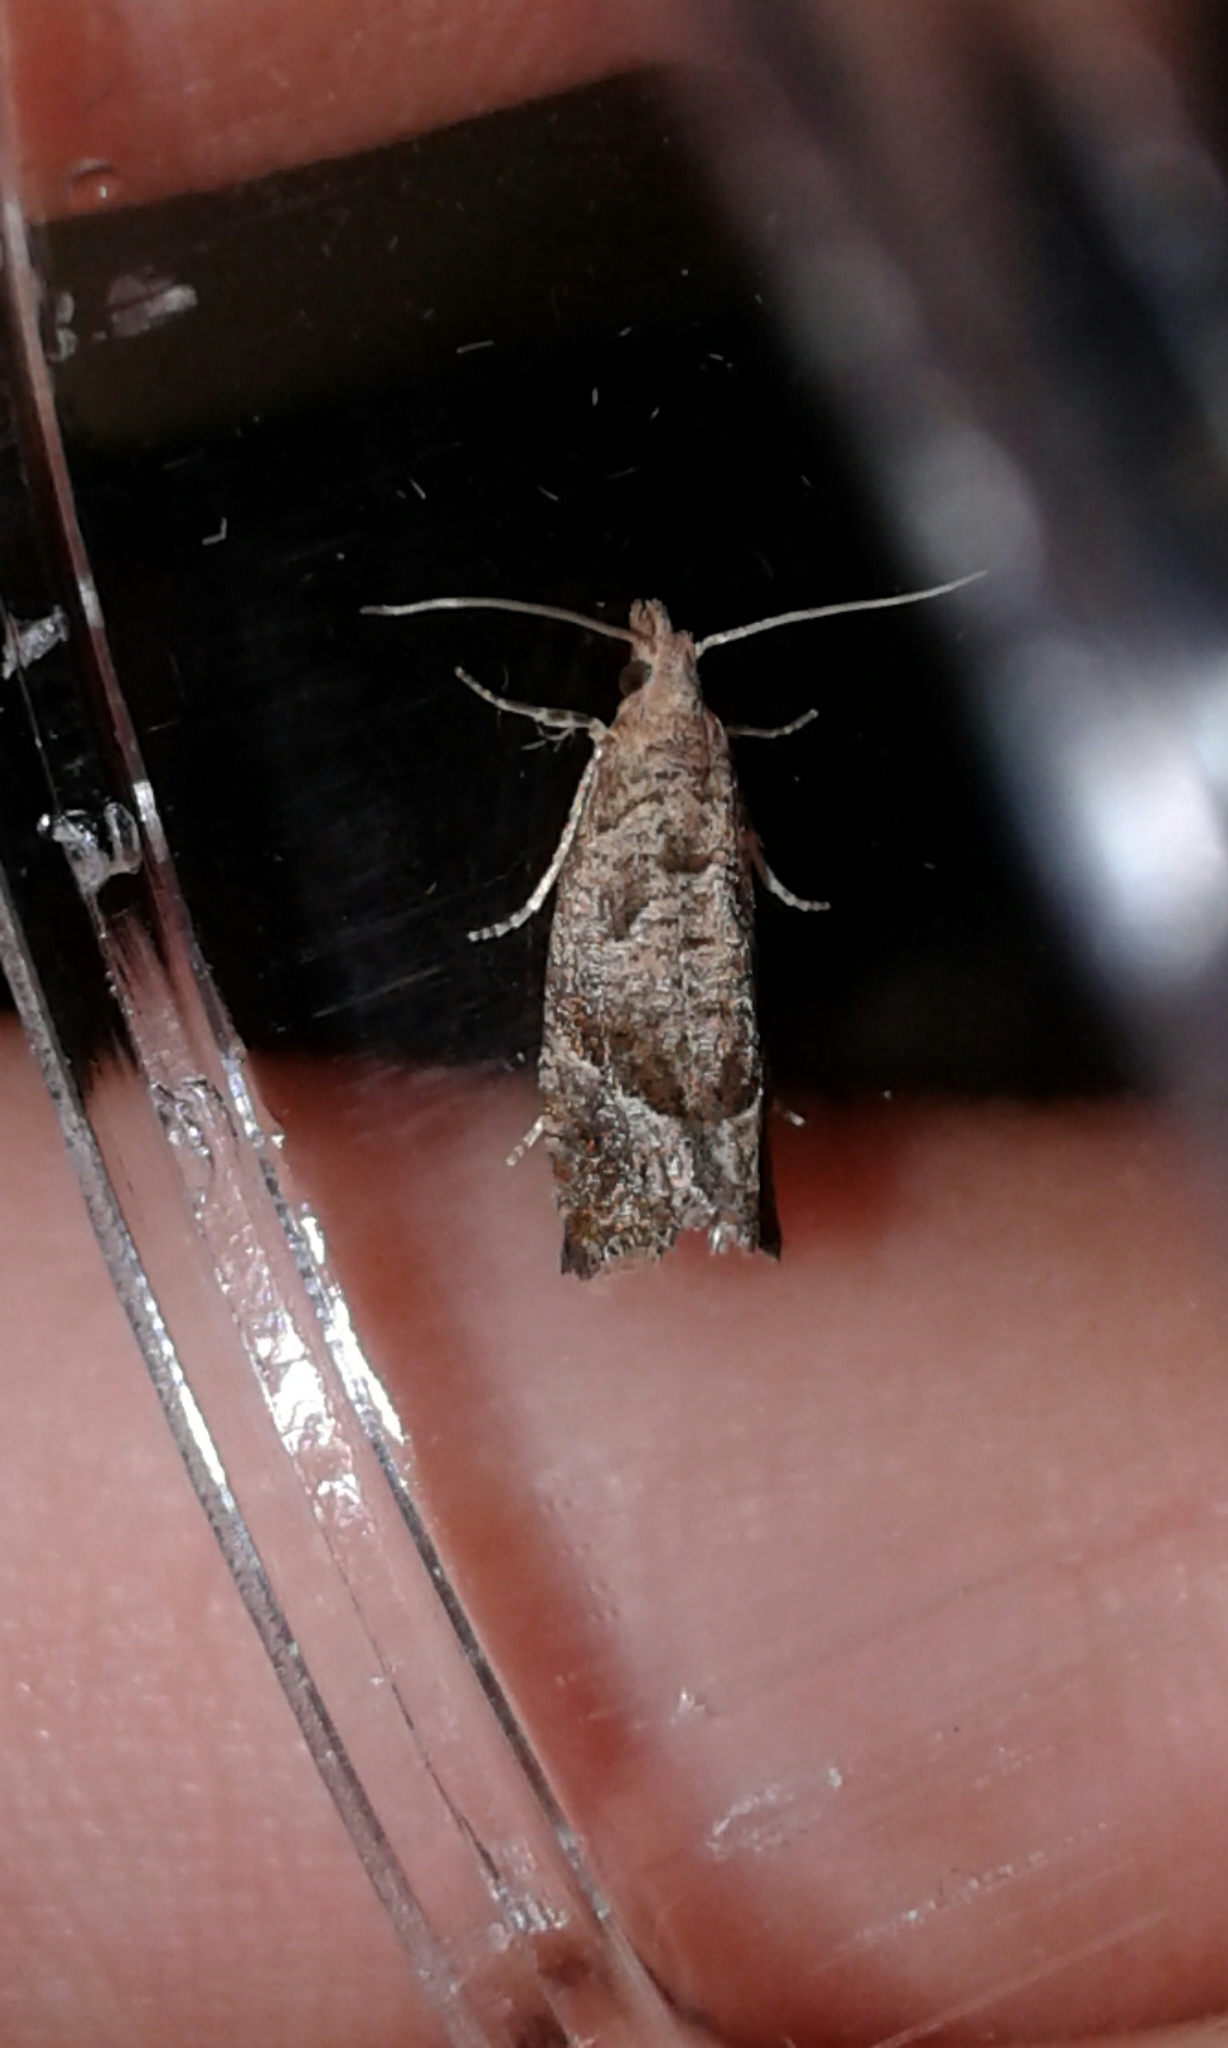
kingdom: Animalia
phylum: Arthropoda
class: Insecta
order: Lepidoptera
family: Tortricidae
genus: Pelochrista
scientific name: Pelochrista derelicta
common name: Derelict pelochrista moth
